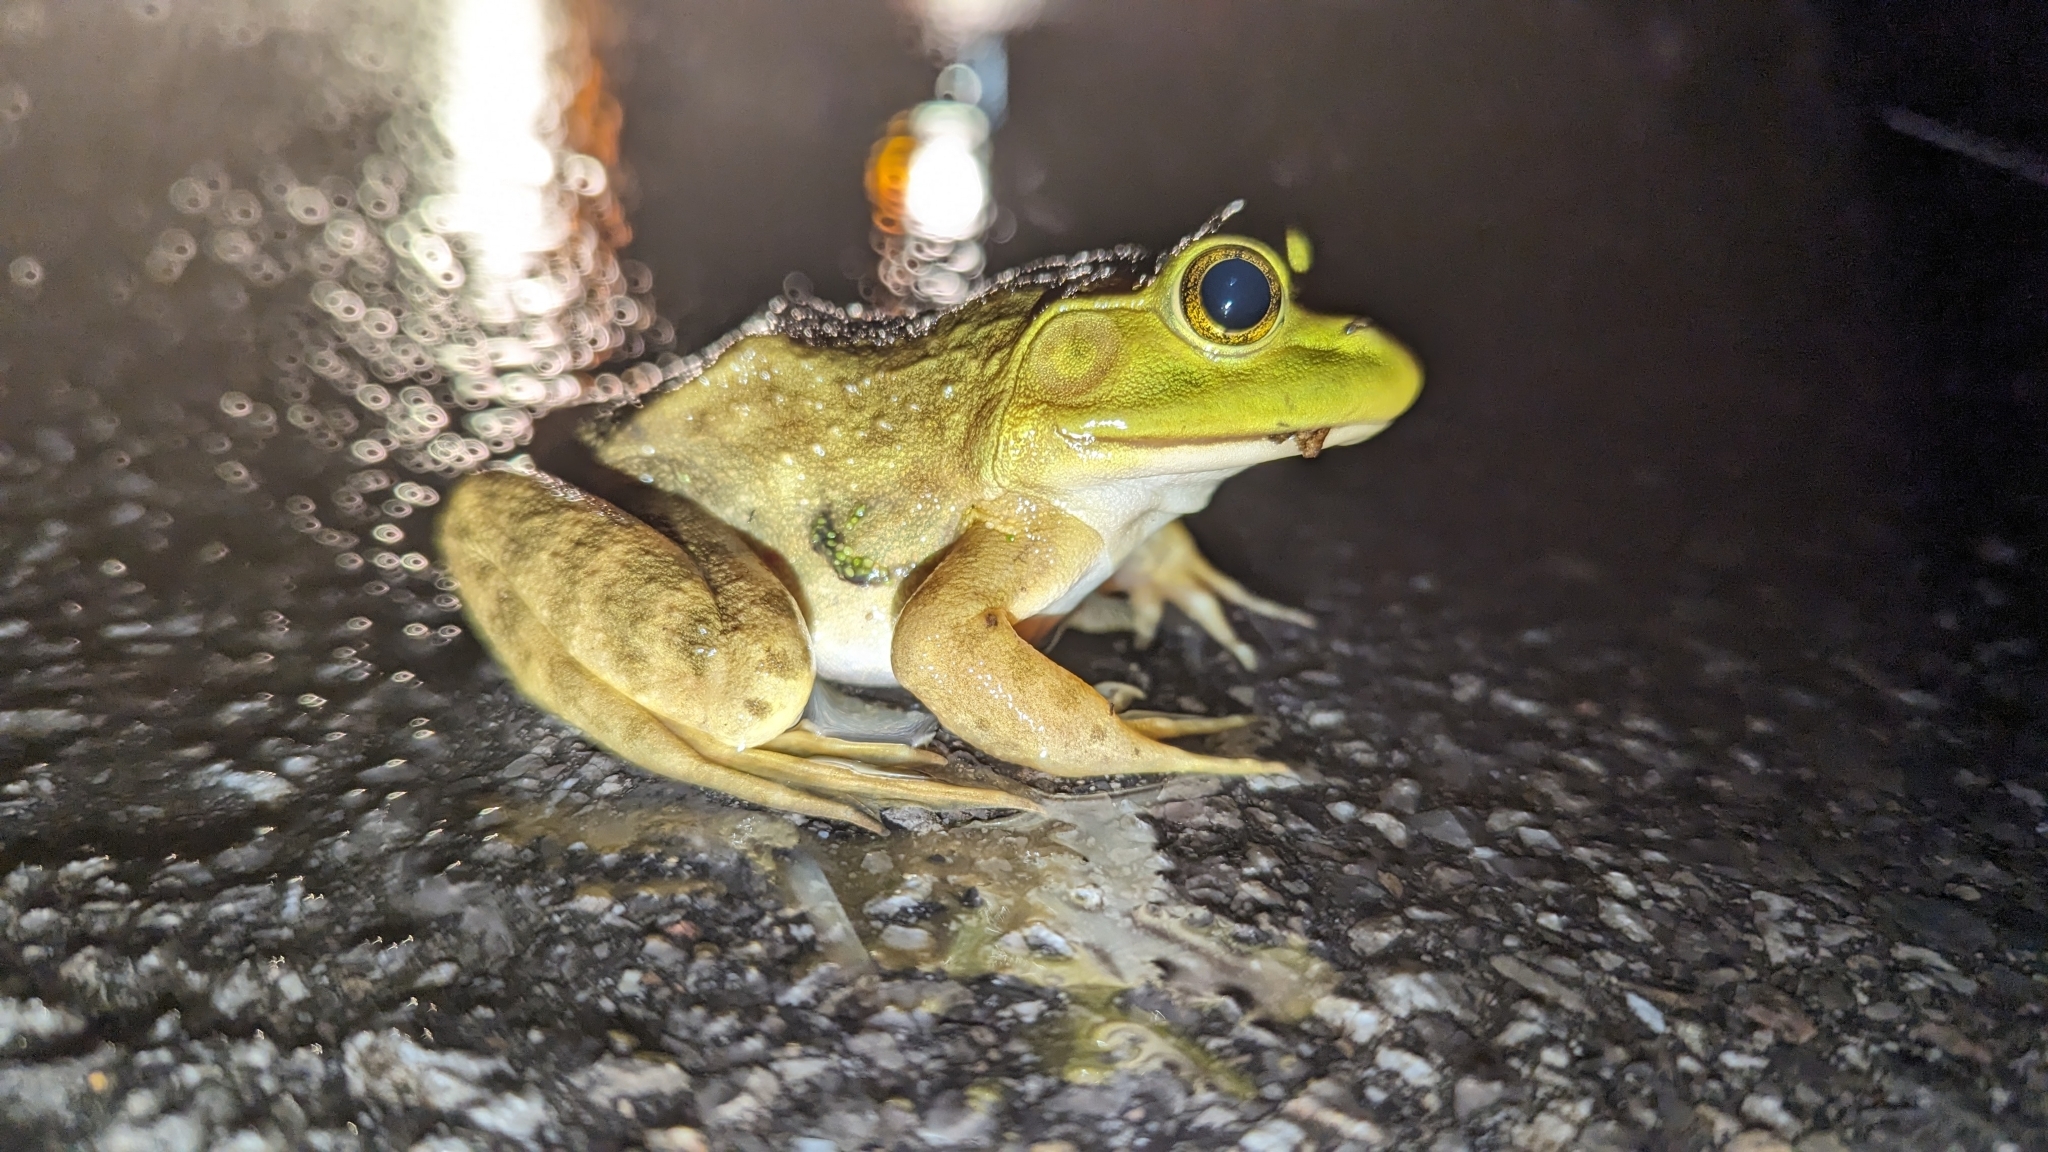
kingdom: Animalia
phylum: Chordata
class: Amphibia
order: Anura
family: Ranidae
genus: Lithobates
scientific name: Lithobates catesbeianus
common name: American bullfrog
